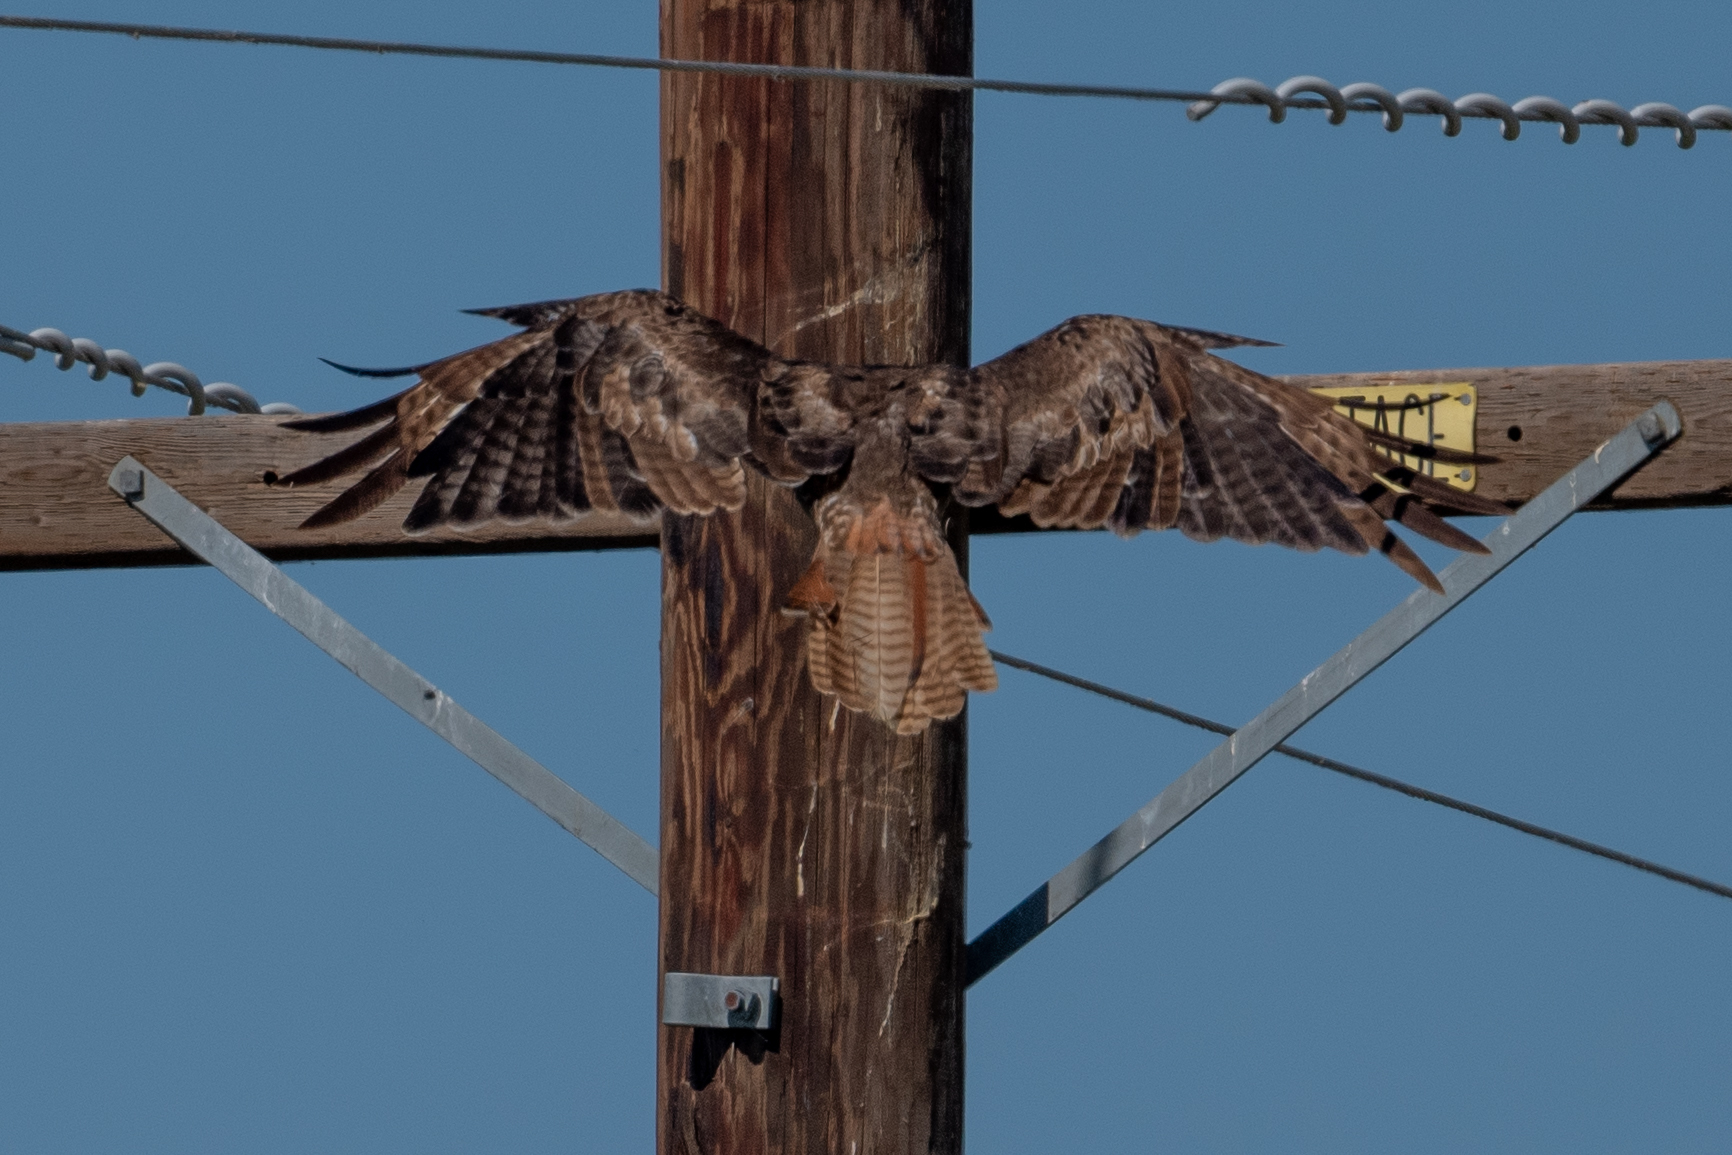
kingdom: Animalia
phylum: Chordata
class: Aves
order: Accipitriformes
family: Accipitridae
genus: Buteo
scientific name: Buteo jamaicensis
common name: Red-tailed hawk
